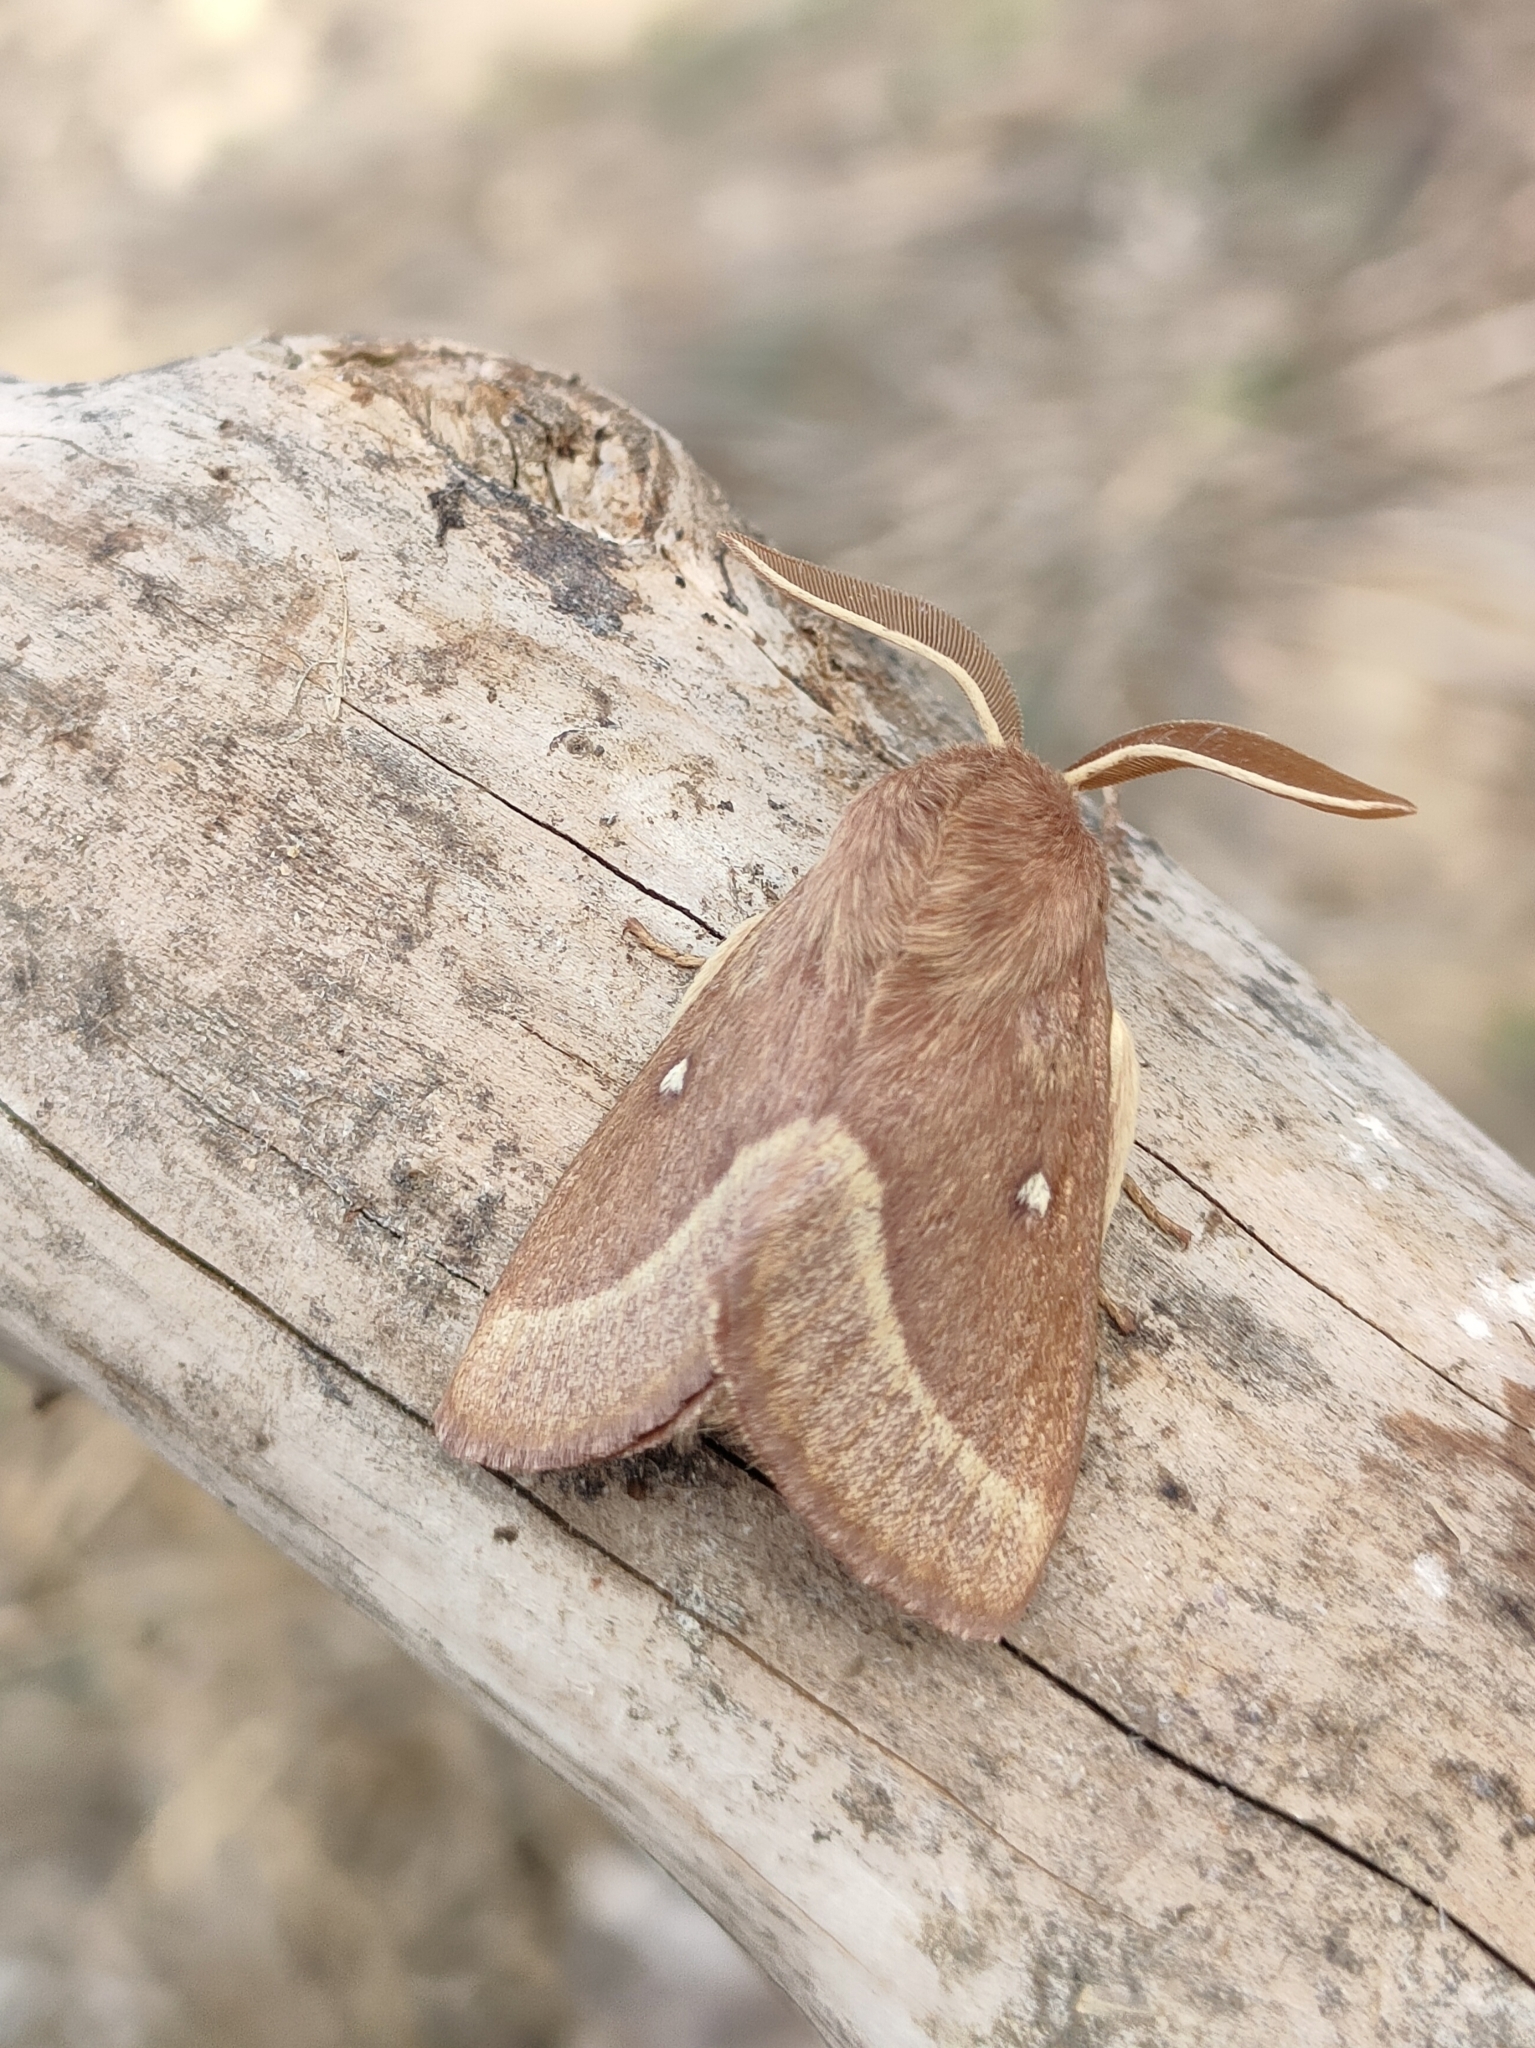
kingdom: Animalia
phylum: Arthropoda
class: Insecta
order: Lepidoptera
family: Lasiocampidae
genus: Lasiocampa
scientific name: Lasiocampa trifolii
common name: Grass eggar
